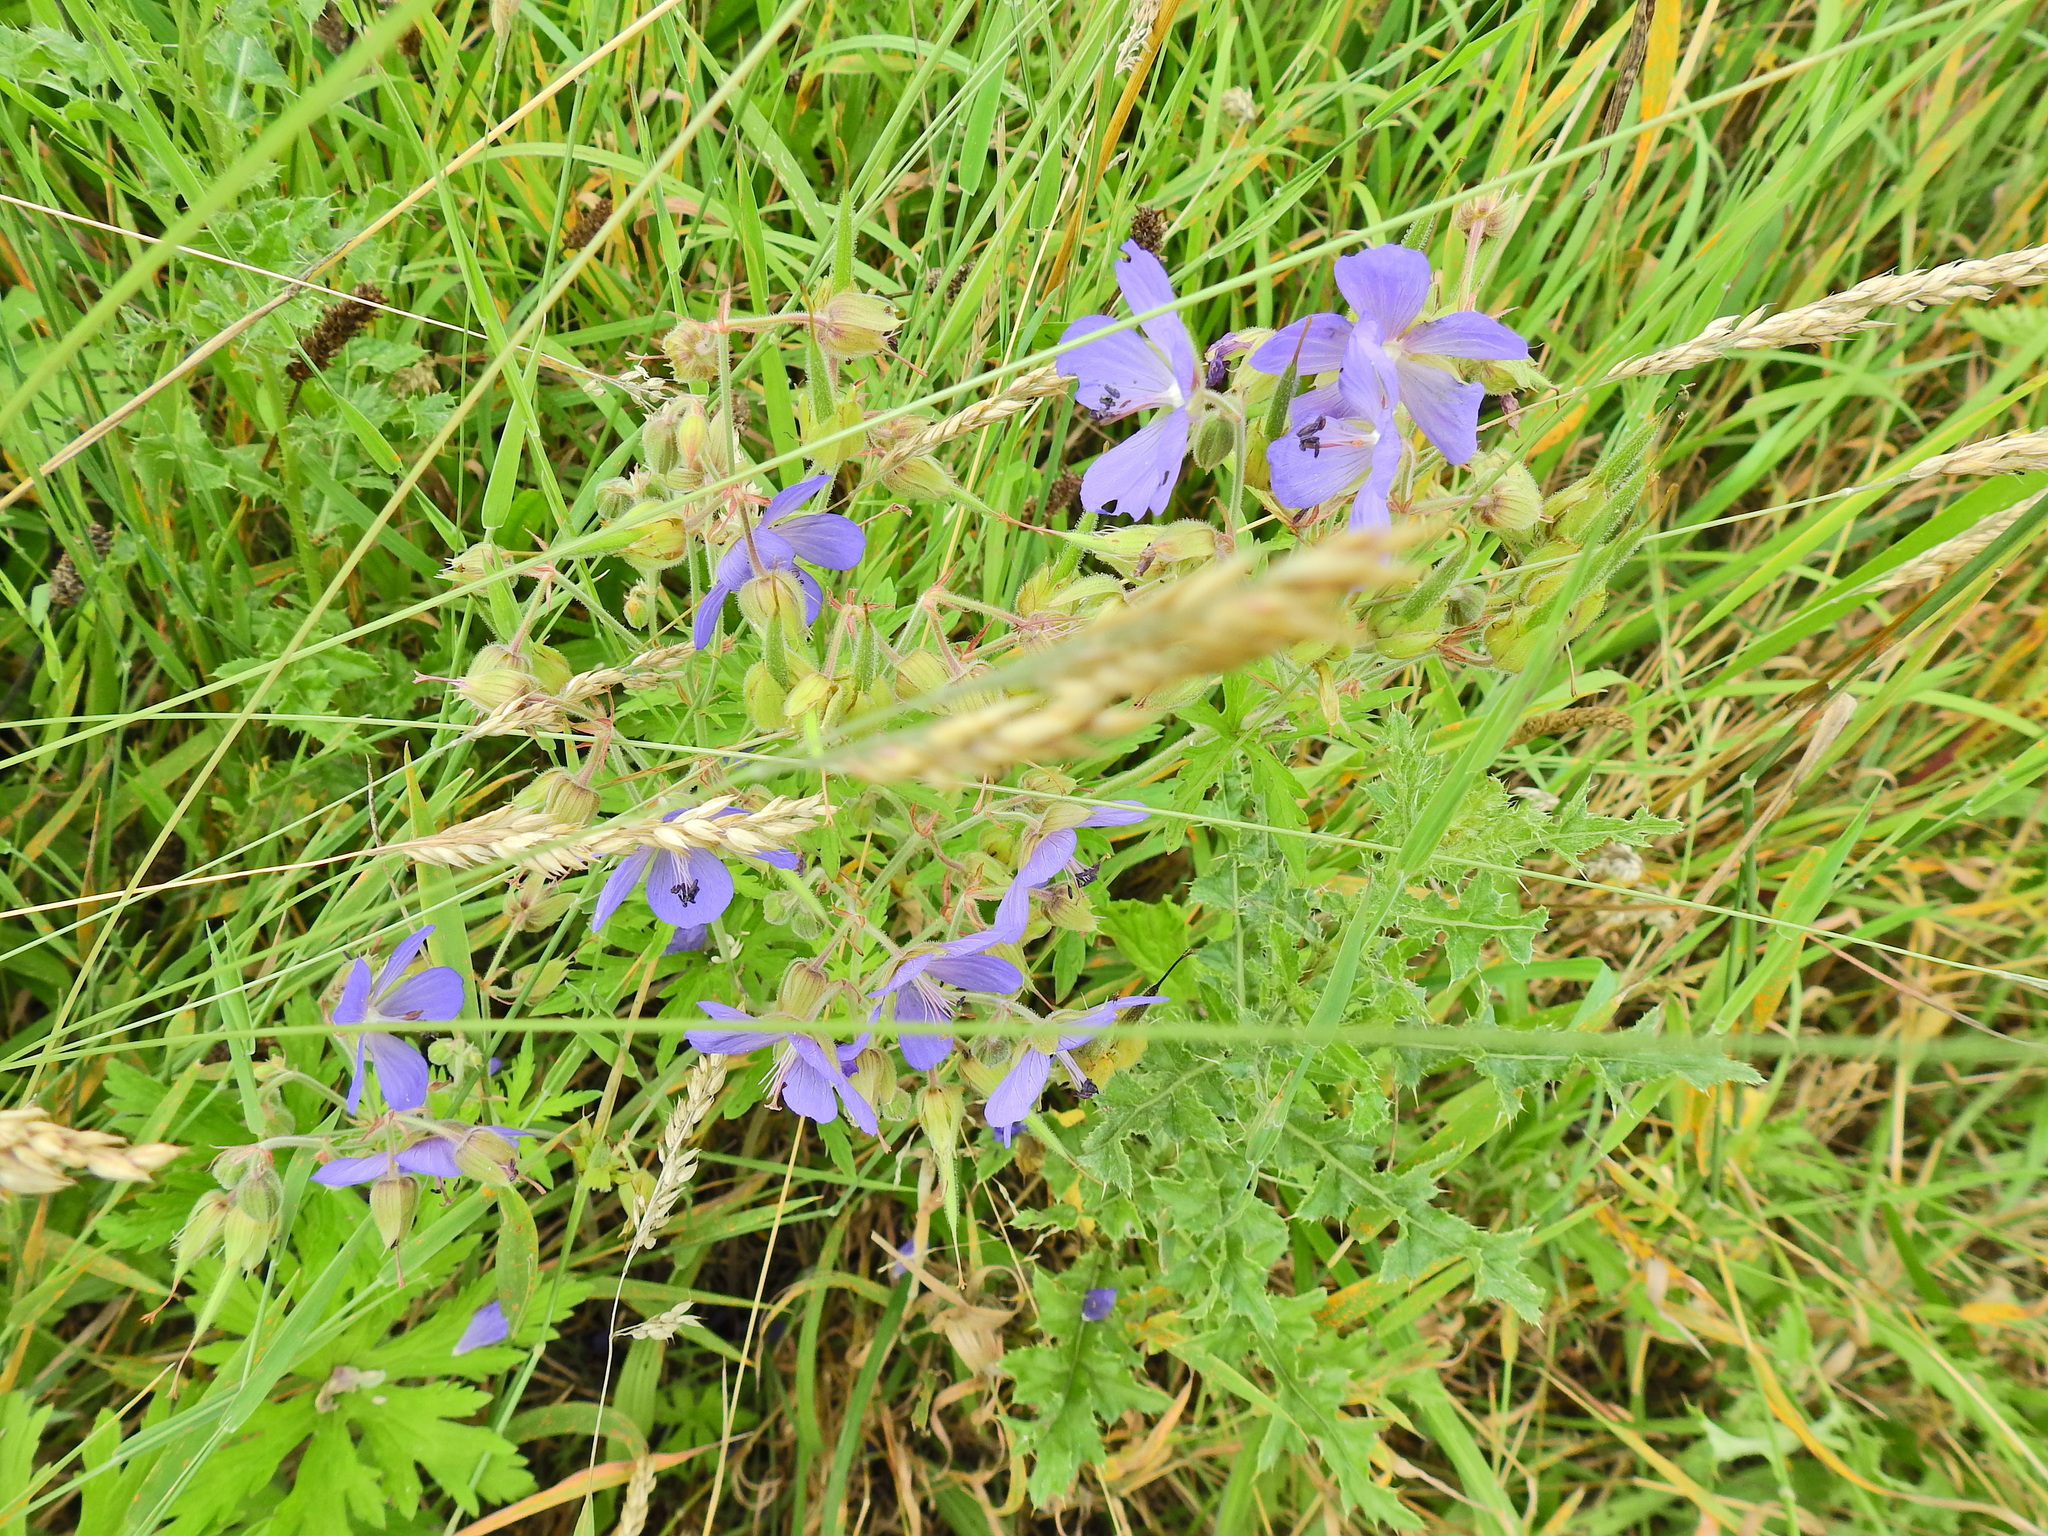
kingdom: Plantae
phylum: Tracheophyta
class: Magnoliopsida
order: Geraniales
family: Geraniaceae
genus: Geranium
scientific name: Geranium pratense
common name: Meadow crane's-bill
